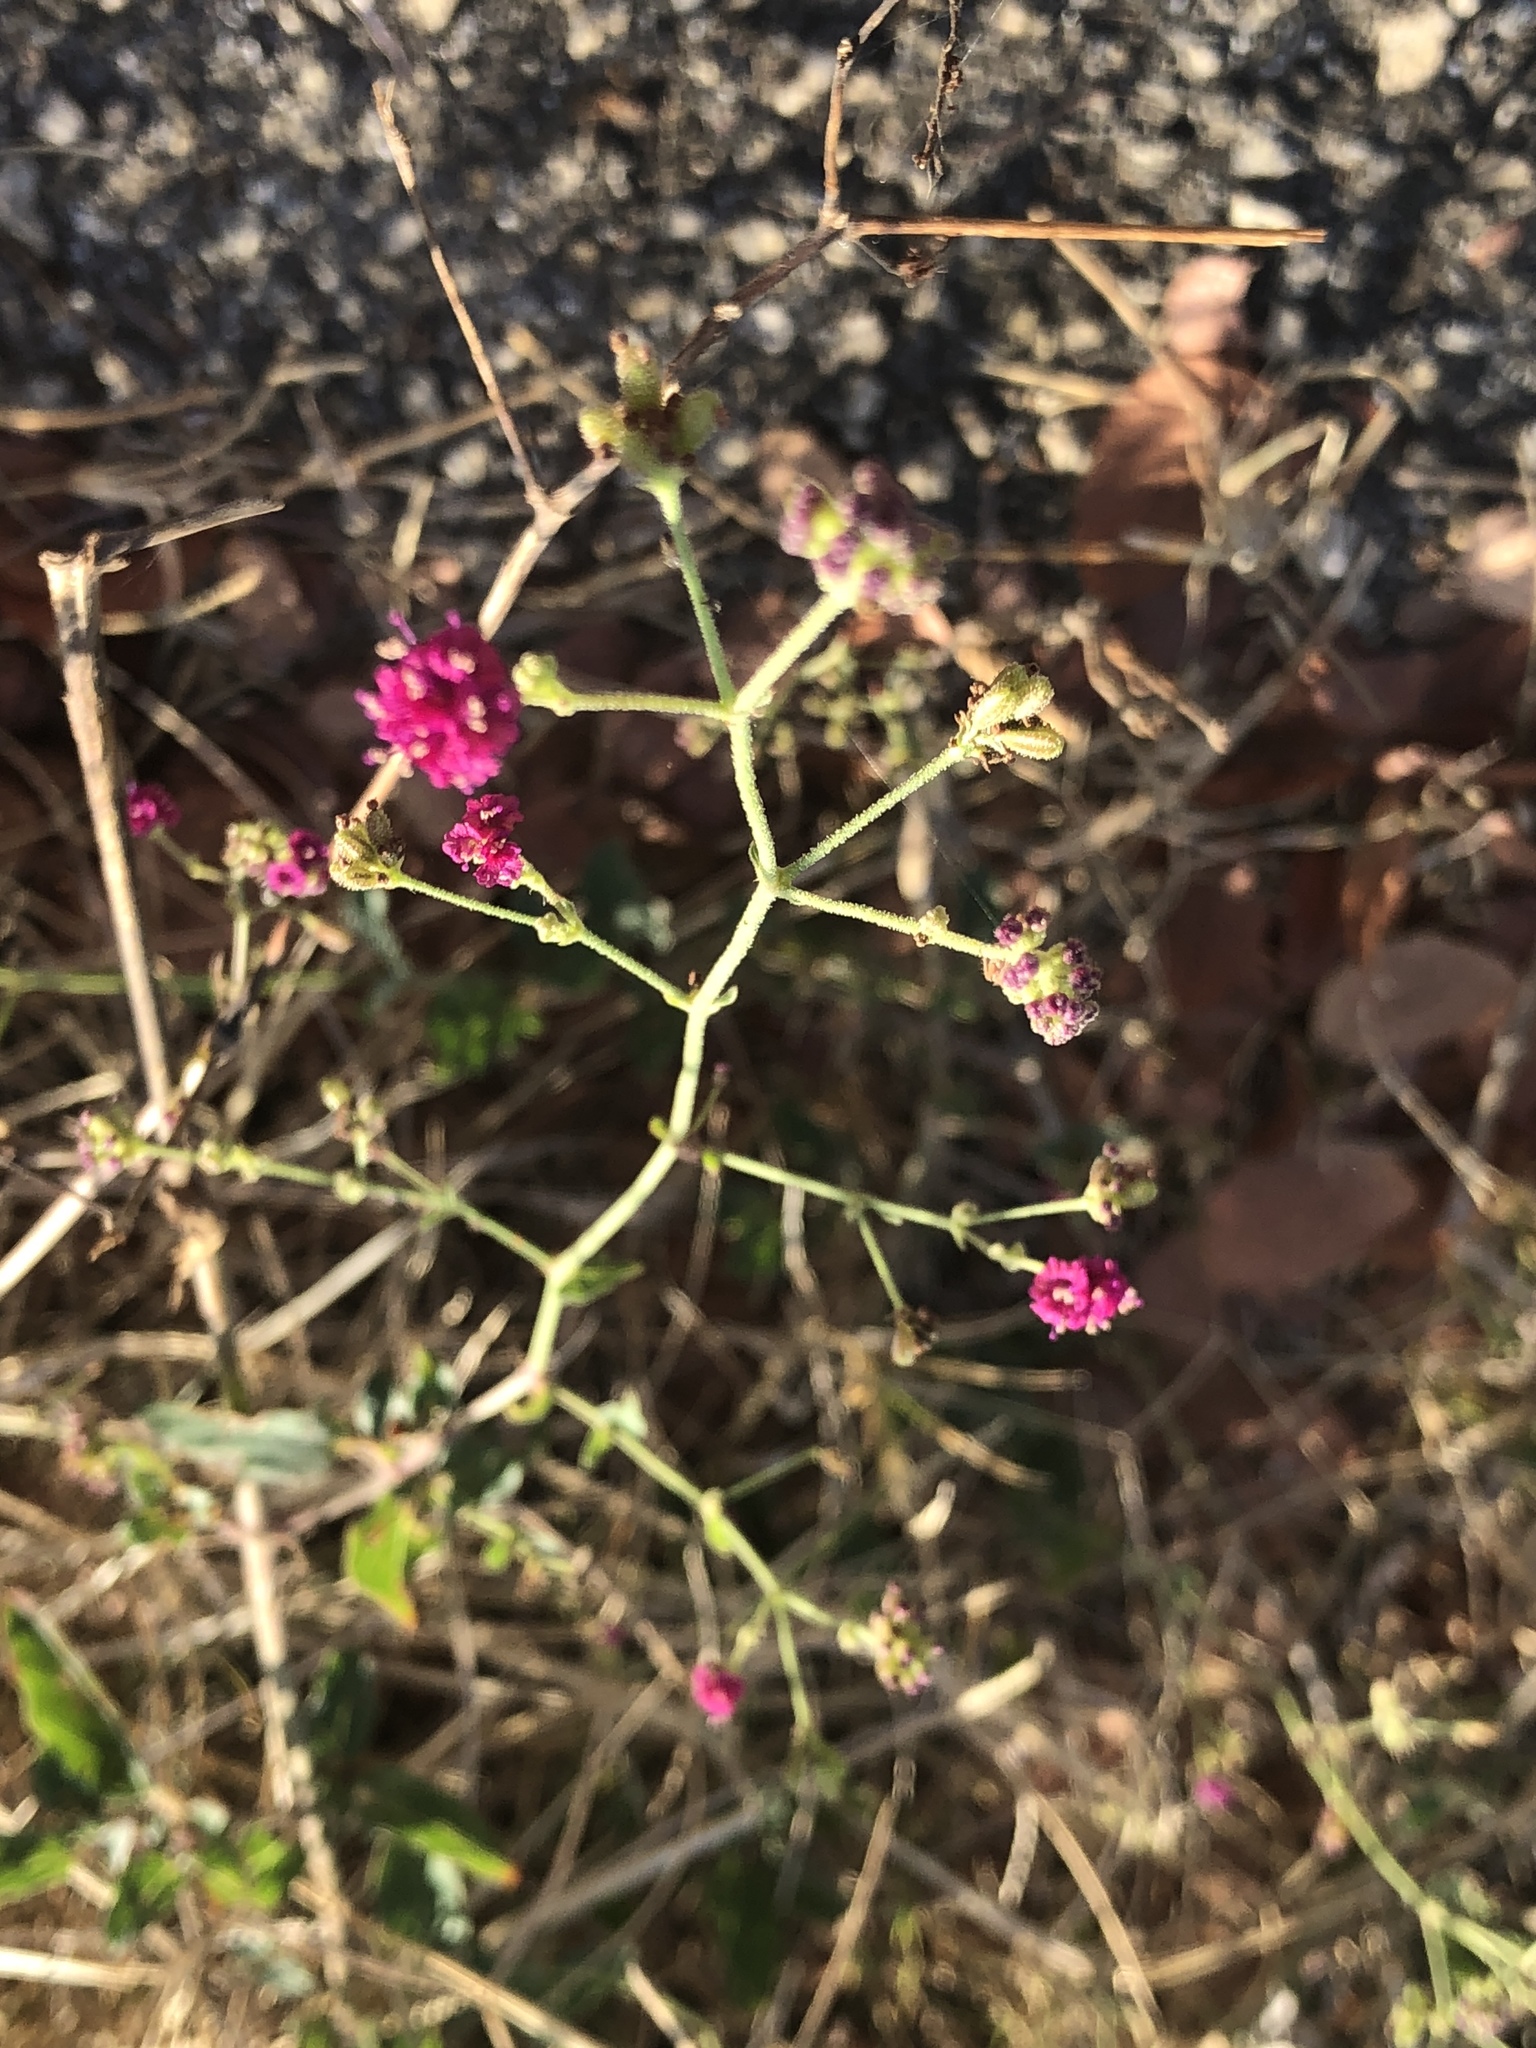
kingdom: Plantae
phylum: Tracheophyta
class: Magnoliopsida
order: Caryophyllales
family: Nyctaginaceae
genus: Boerhavia
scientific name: Boerhavia coccinea
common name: Scarlet spiderling
